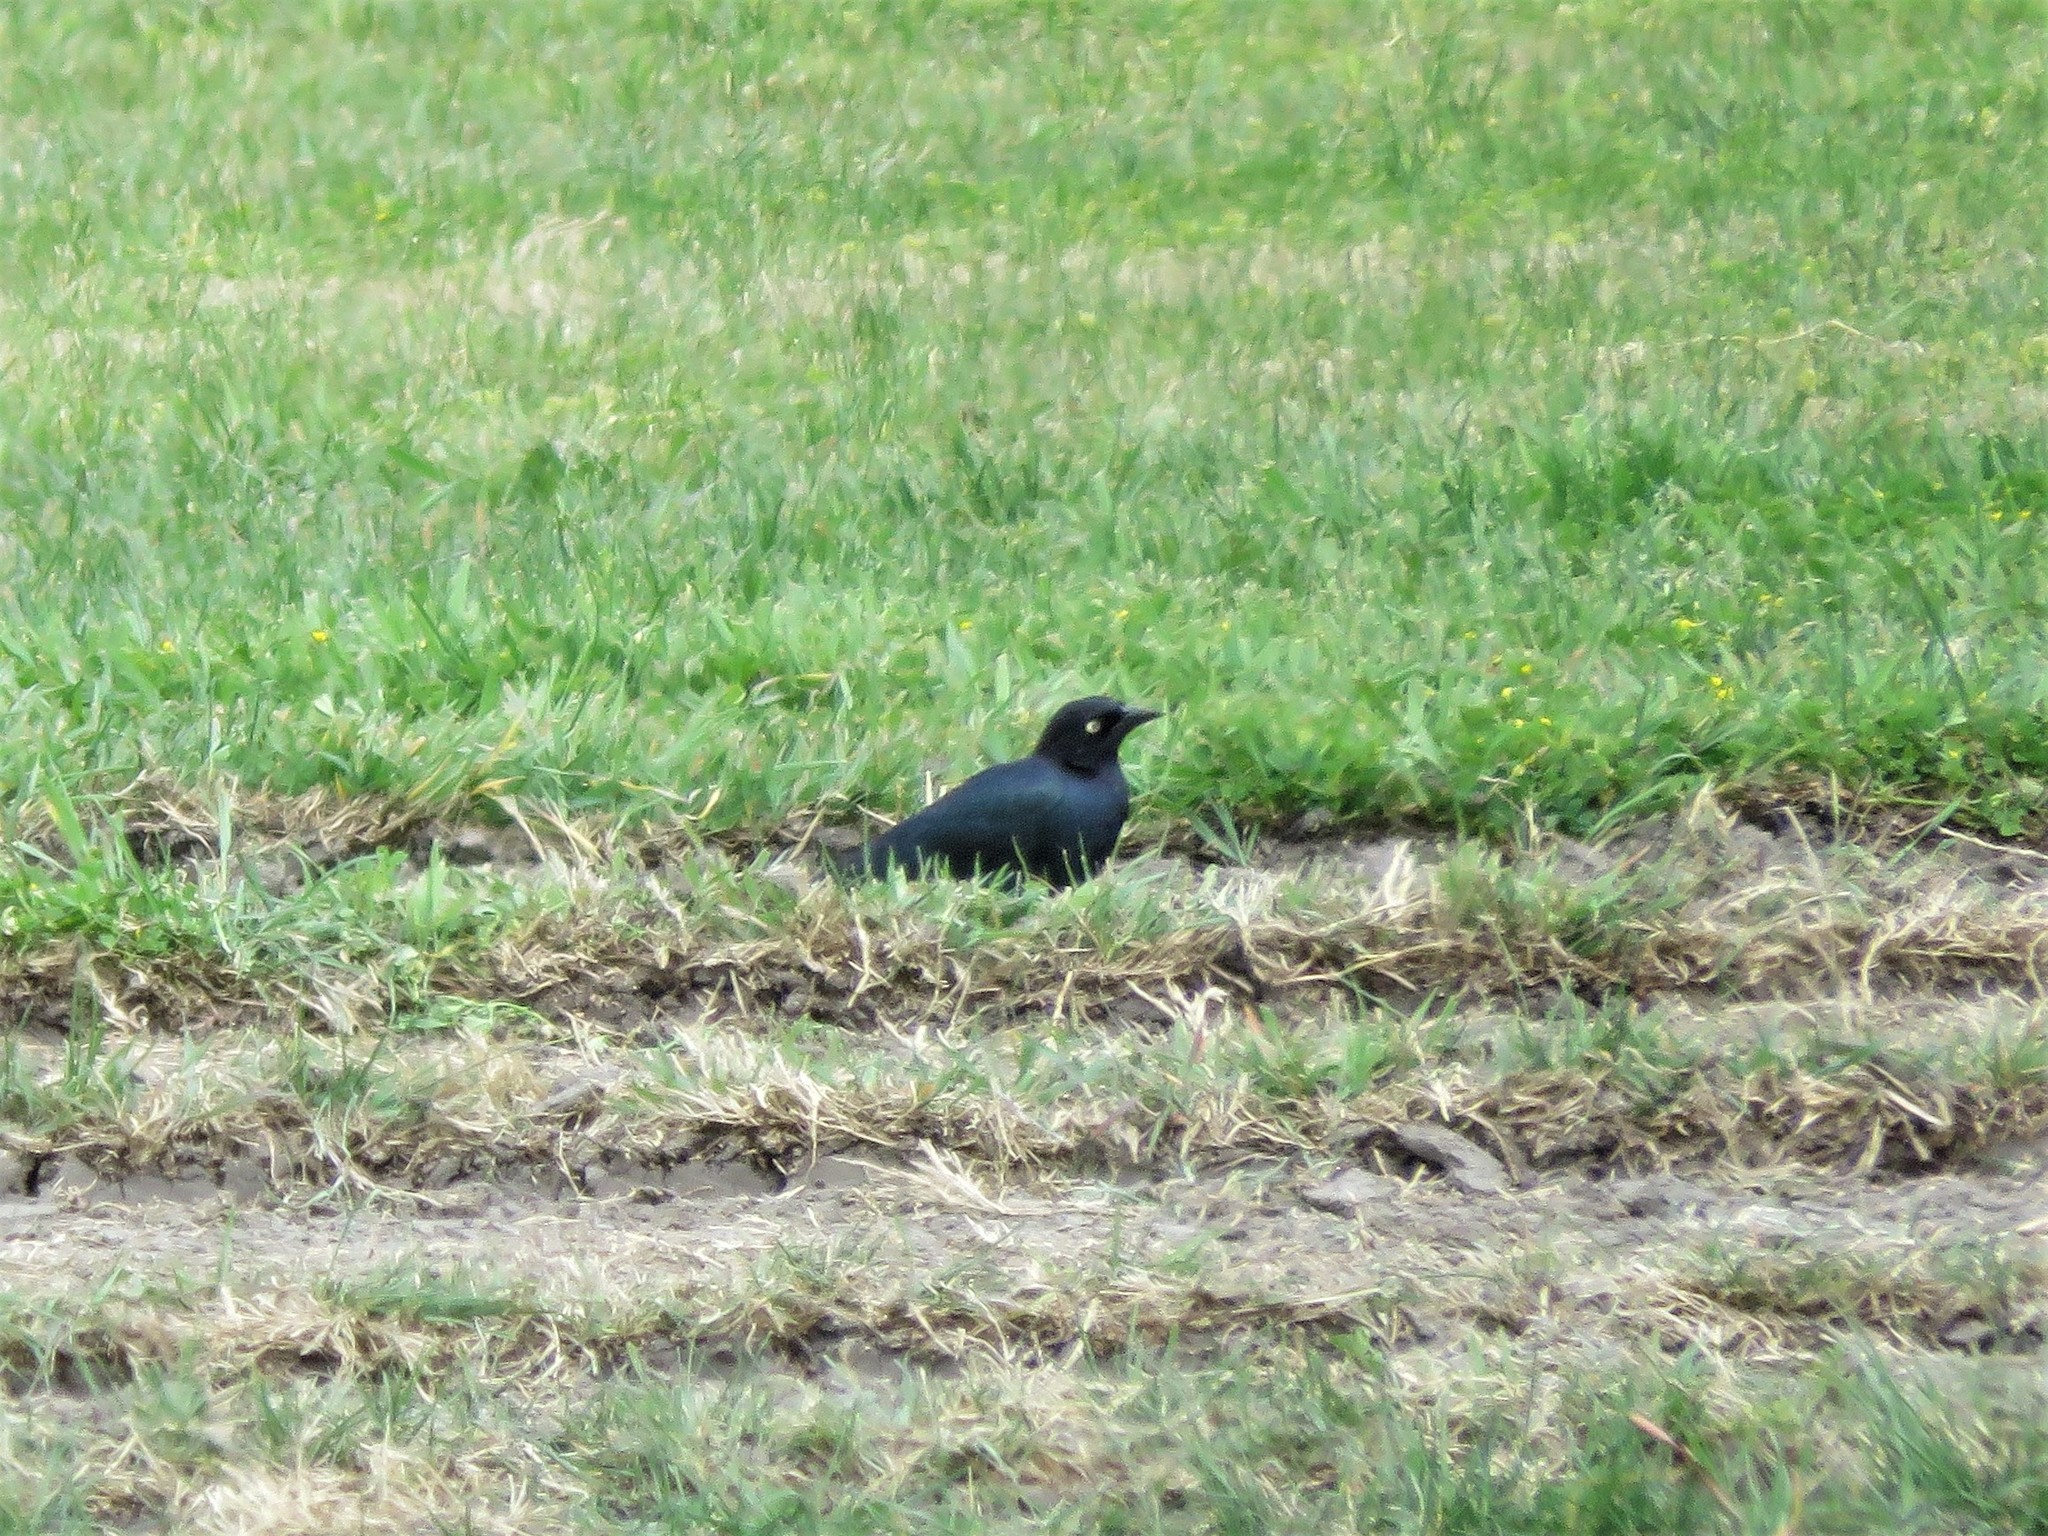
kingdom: Animalia
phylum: Chordata
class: Aves
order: Passeriformes
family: Icteridae
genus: Euphagus
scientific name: Euphagus cyanocephalus
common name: Brewer's blackbird
